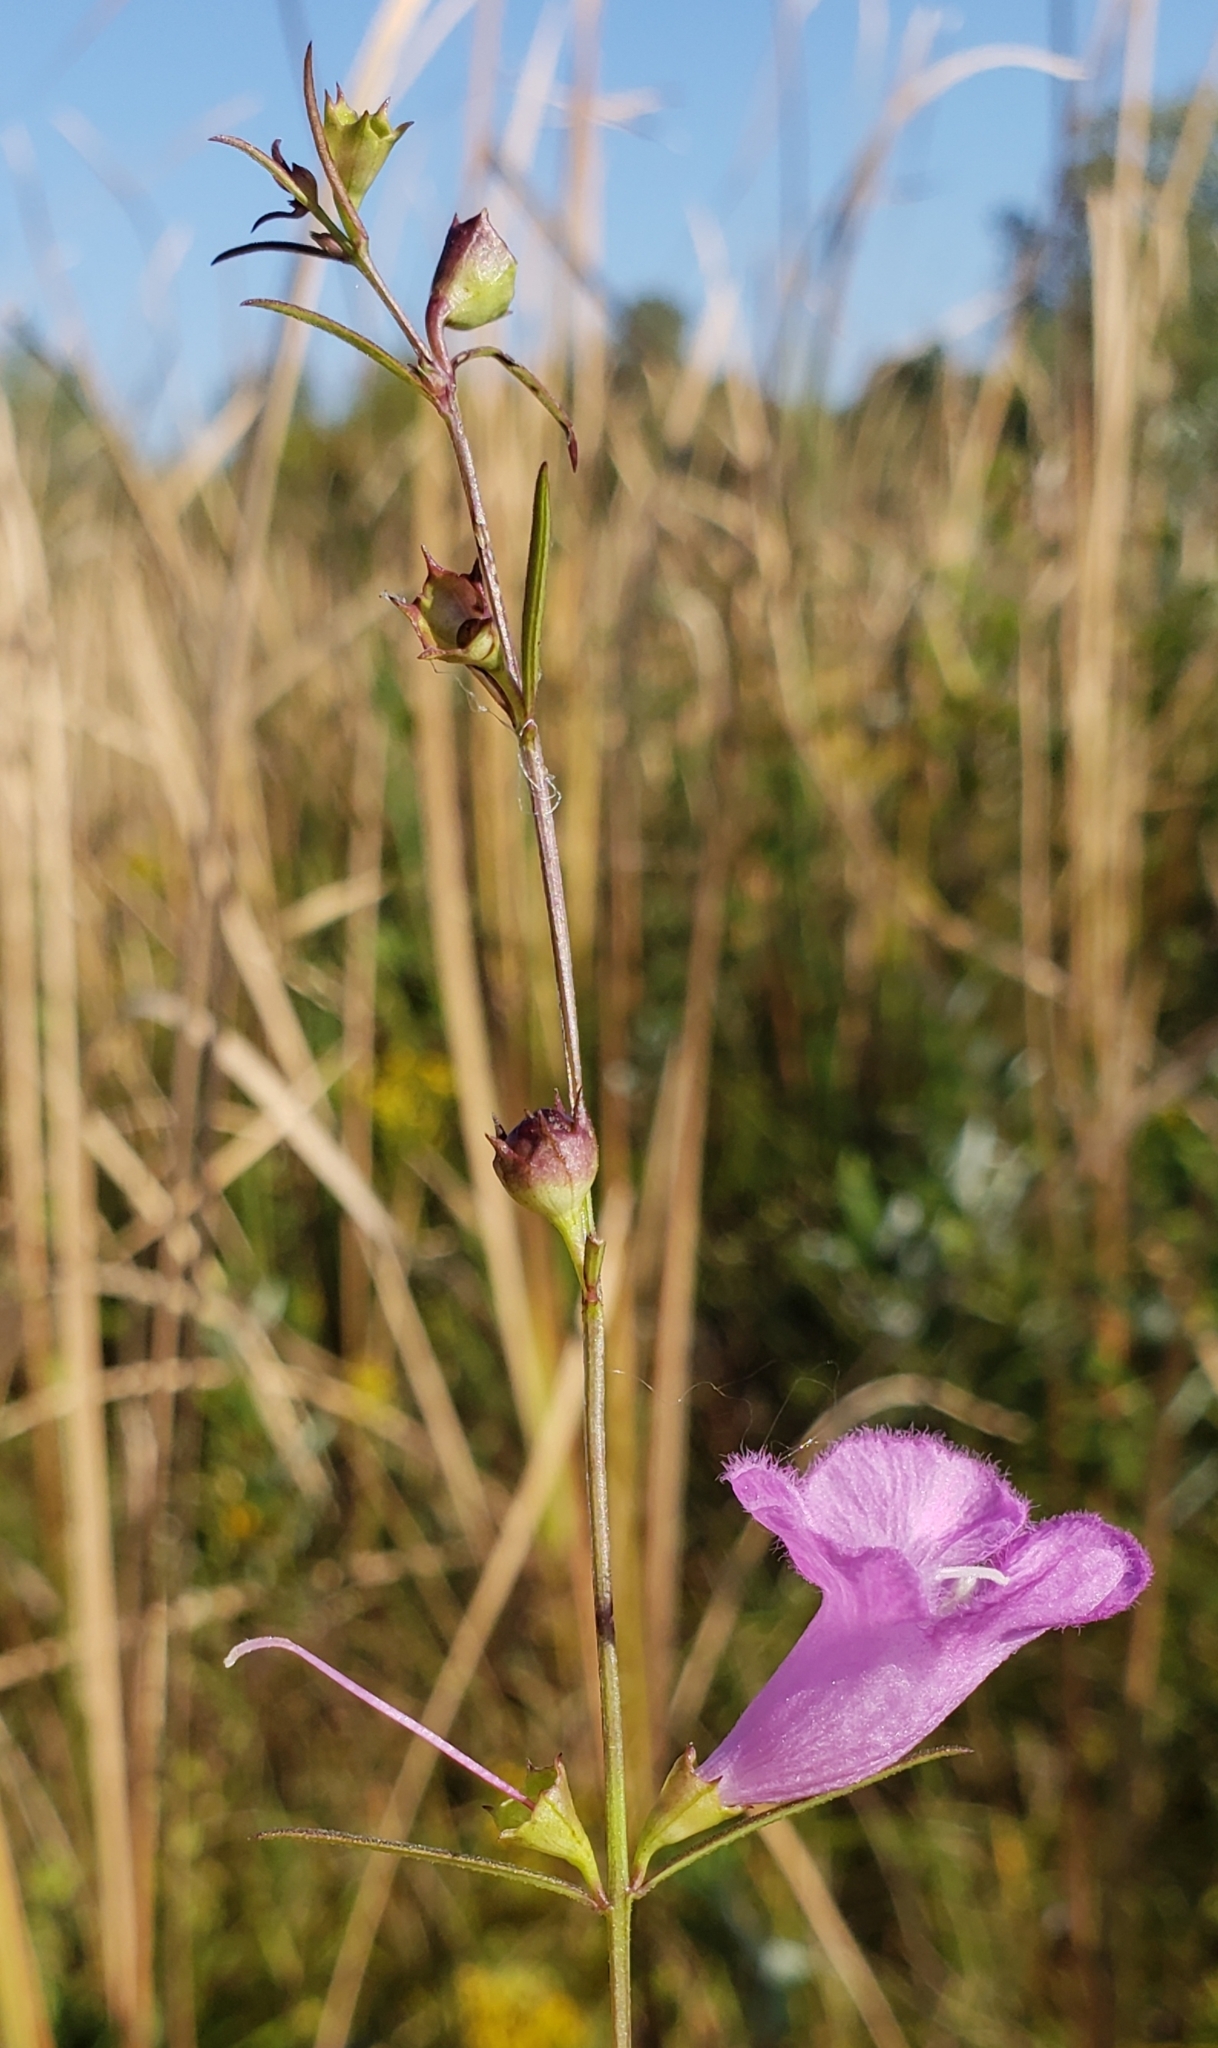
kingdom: Plantae
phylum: Tracheophyta
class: Magnoliopsida
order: Lamiales
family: Orobanchaceae
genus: Agalinis
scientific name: Agalinis purpurea
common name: Purple false foxglove
